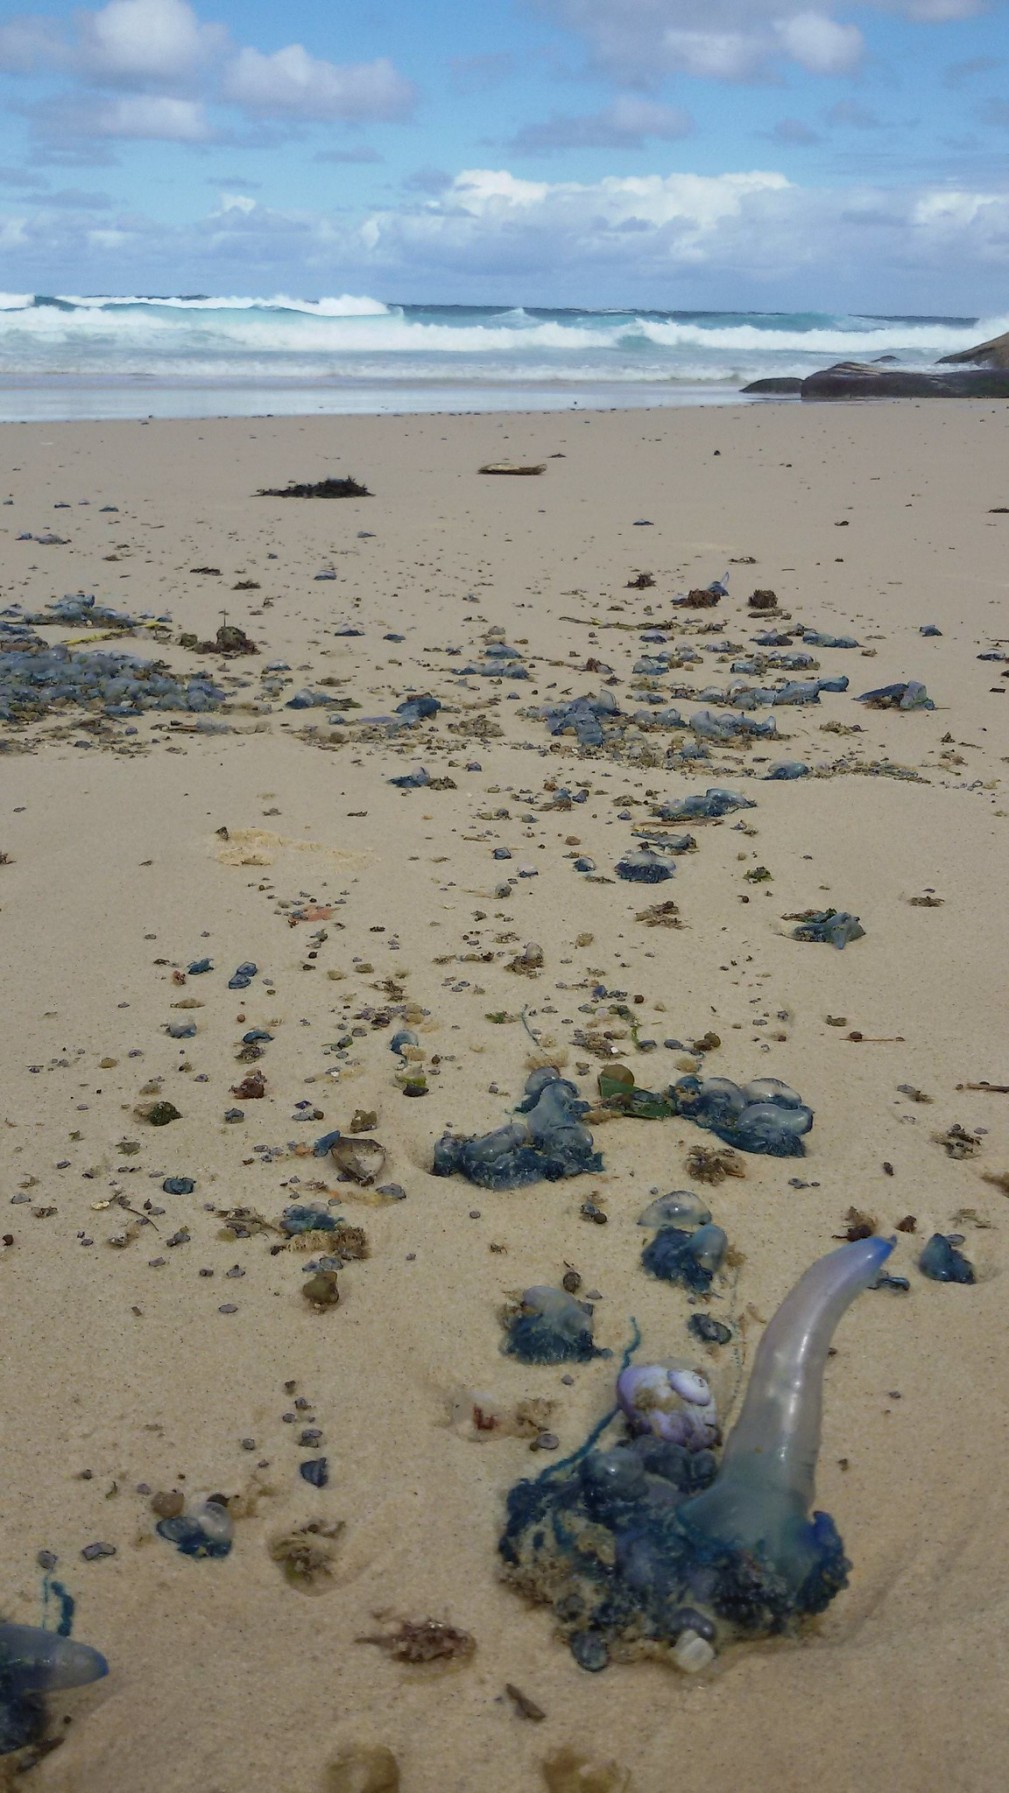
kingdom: Animalia
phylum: Cnidaria
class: Hydrozoa
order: Siphonophorae
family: Physaliidae
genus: Physalia
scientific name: Physalia physalis
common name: Portuguese man-of-war
